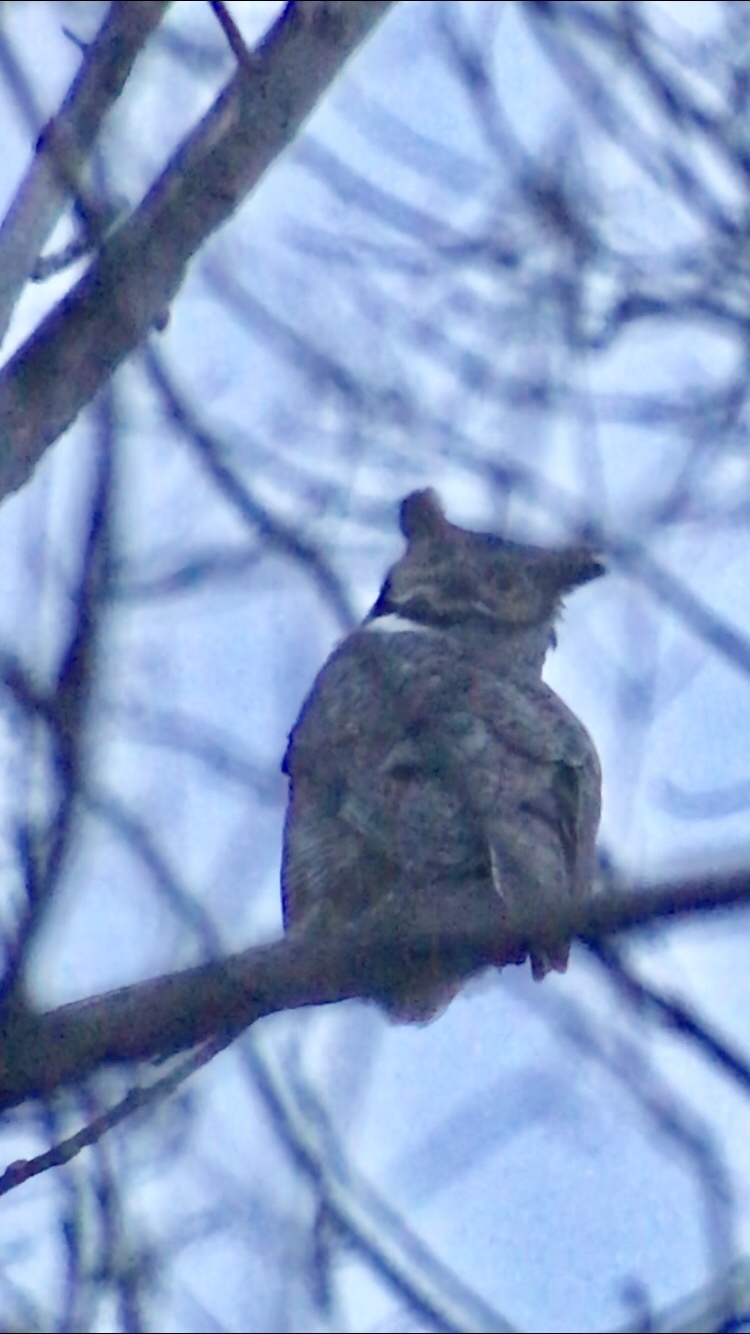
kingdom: Animalia
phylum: Chordata
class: Aves
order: Strigiformes
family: Strigidae
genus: Bubo
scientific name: Bubo virginianus
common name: Great horned owl
